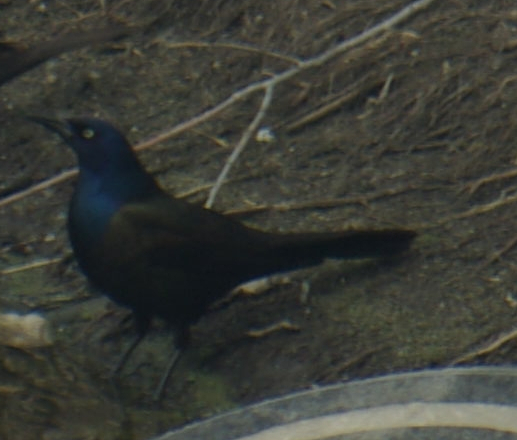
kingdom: Animalia
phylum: Chordata
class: Aves
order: Passeriformes
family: Icteridae
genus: Quiscalus
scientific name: Quiscalus quiscula
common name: Common grackle
